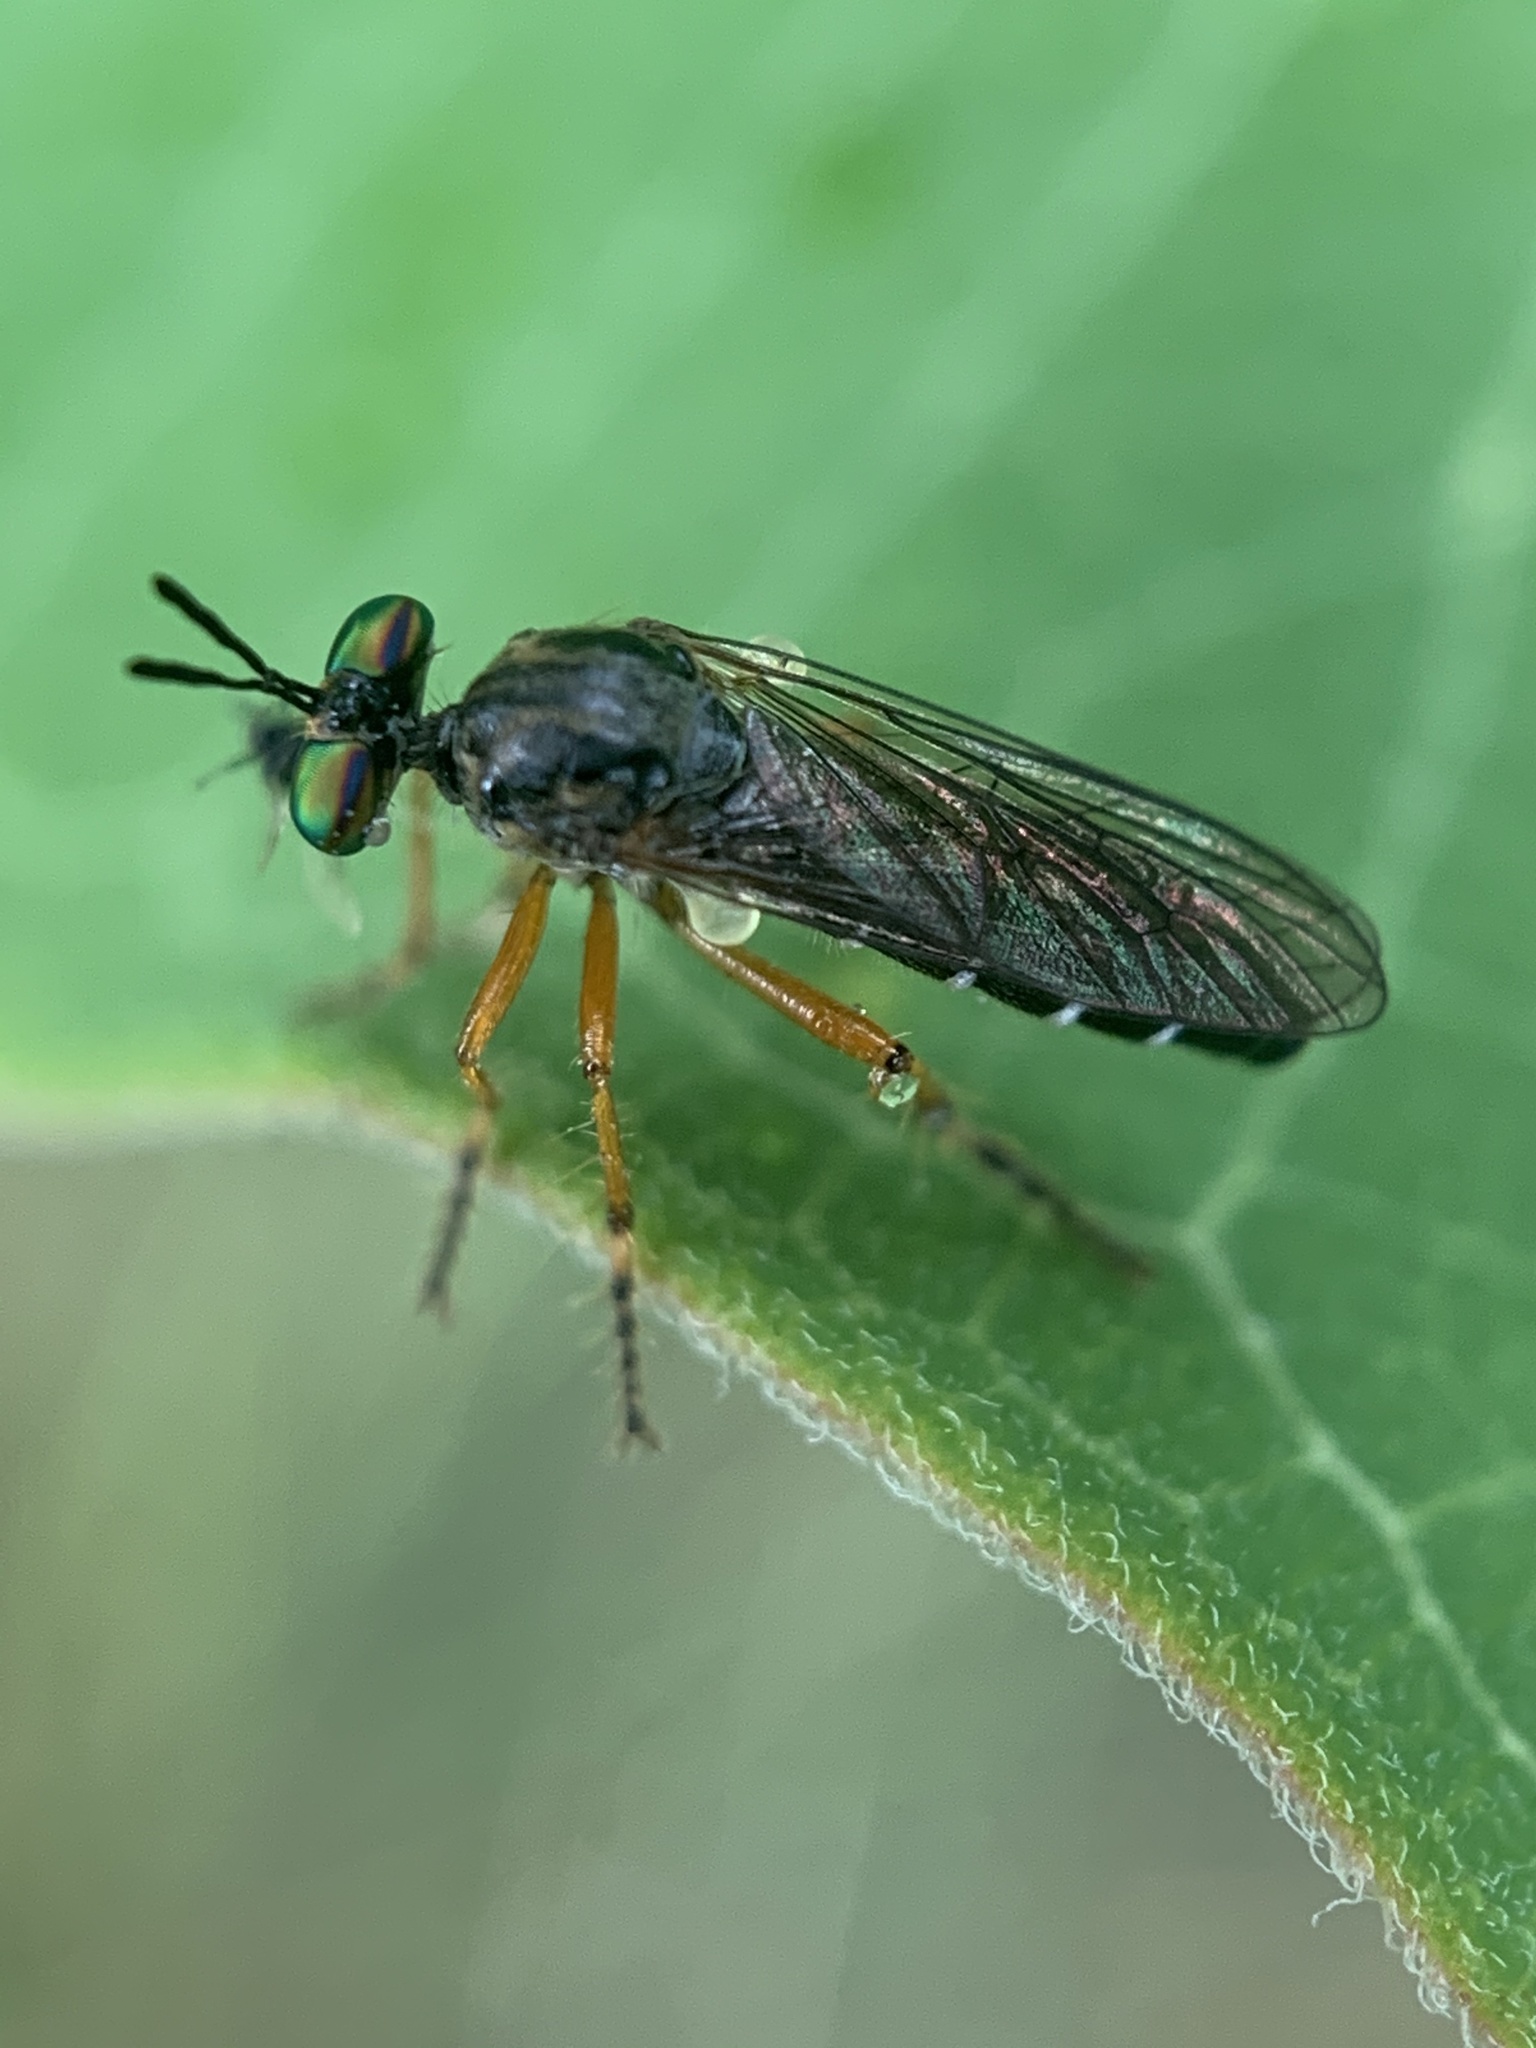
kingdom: Animalia
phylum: Arthropoda
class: Insecta
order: Diptera
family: Asilidae
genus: Taracticus
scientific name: Taracticus octopunctatus
